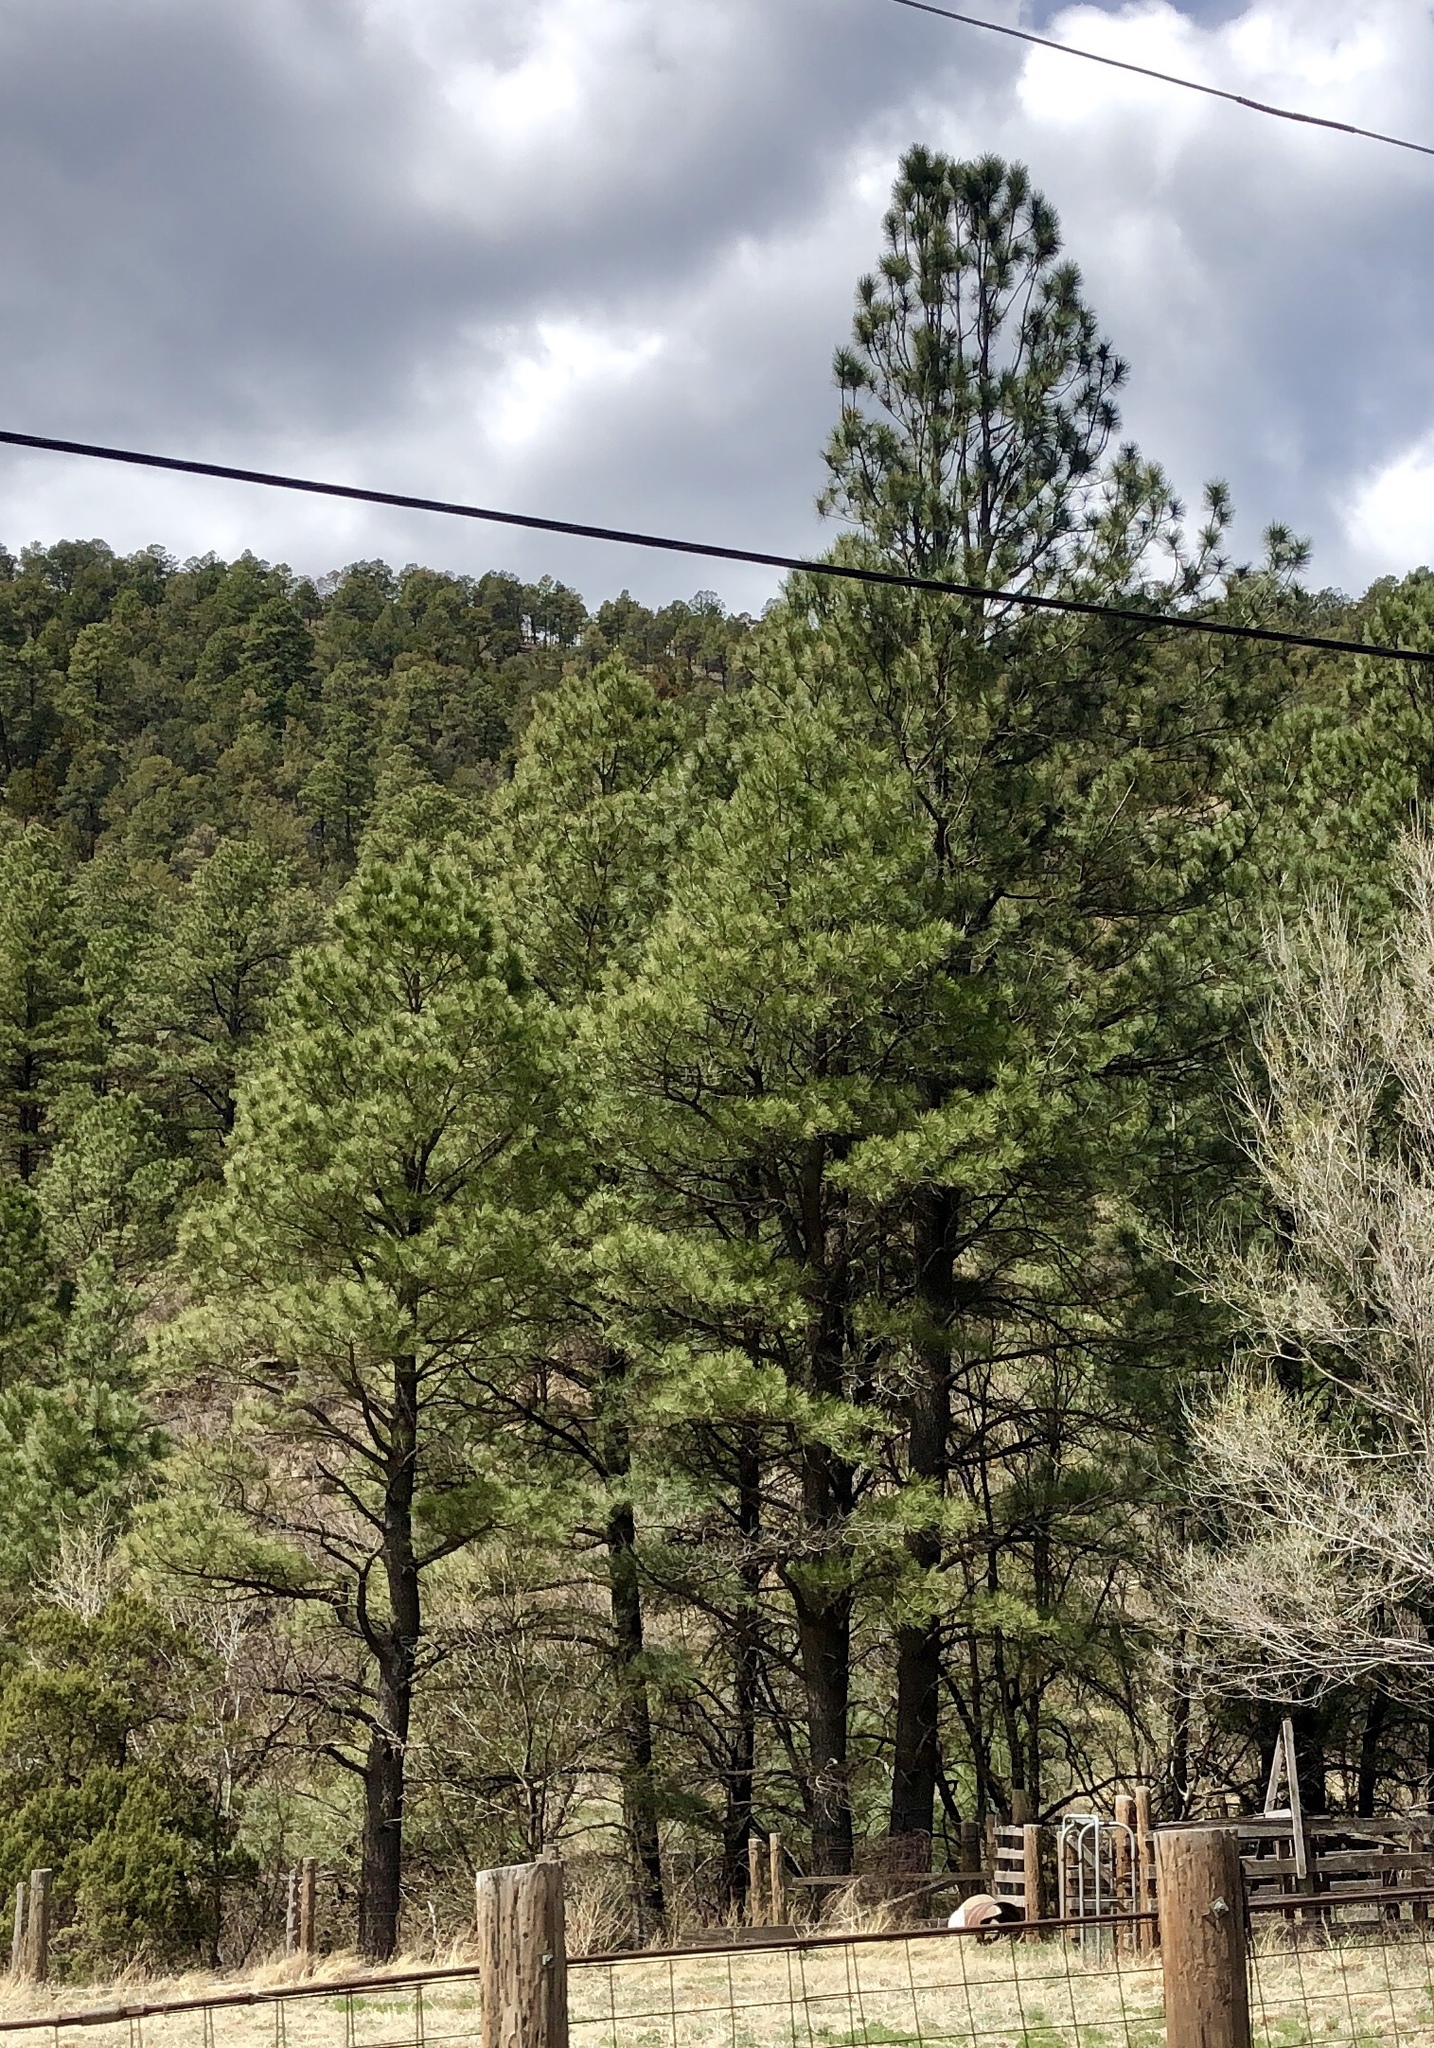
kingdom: Plantae
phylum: Tracheophyta
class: Pinopsida
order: Pinales
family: Pinaceae
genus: Pinus
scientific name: Pinus ponderosa
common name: Western yellow-pine
